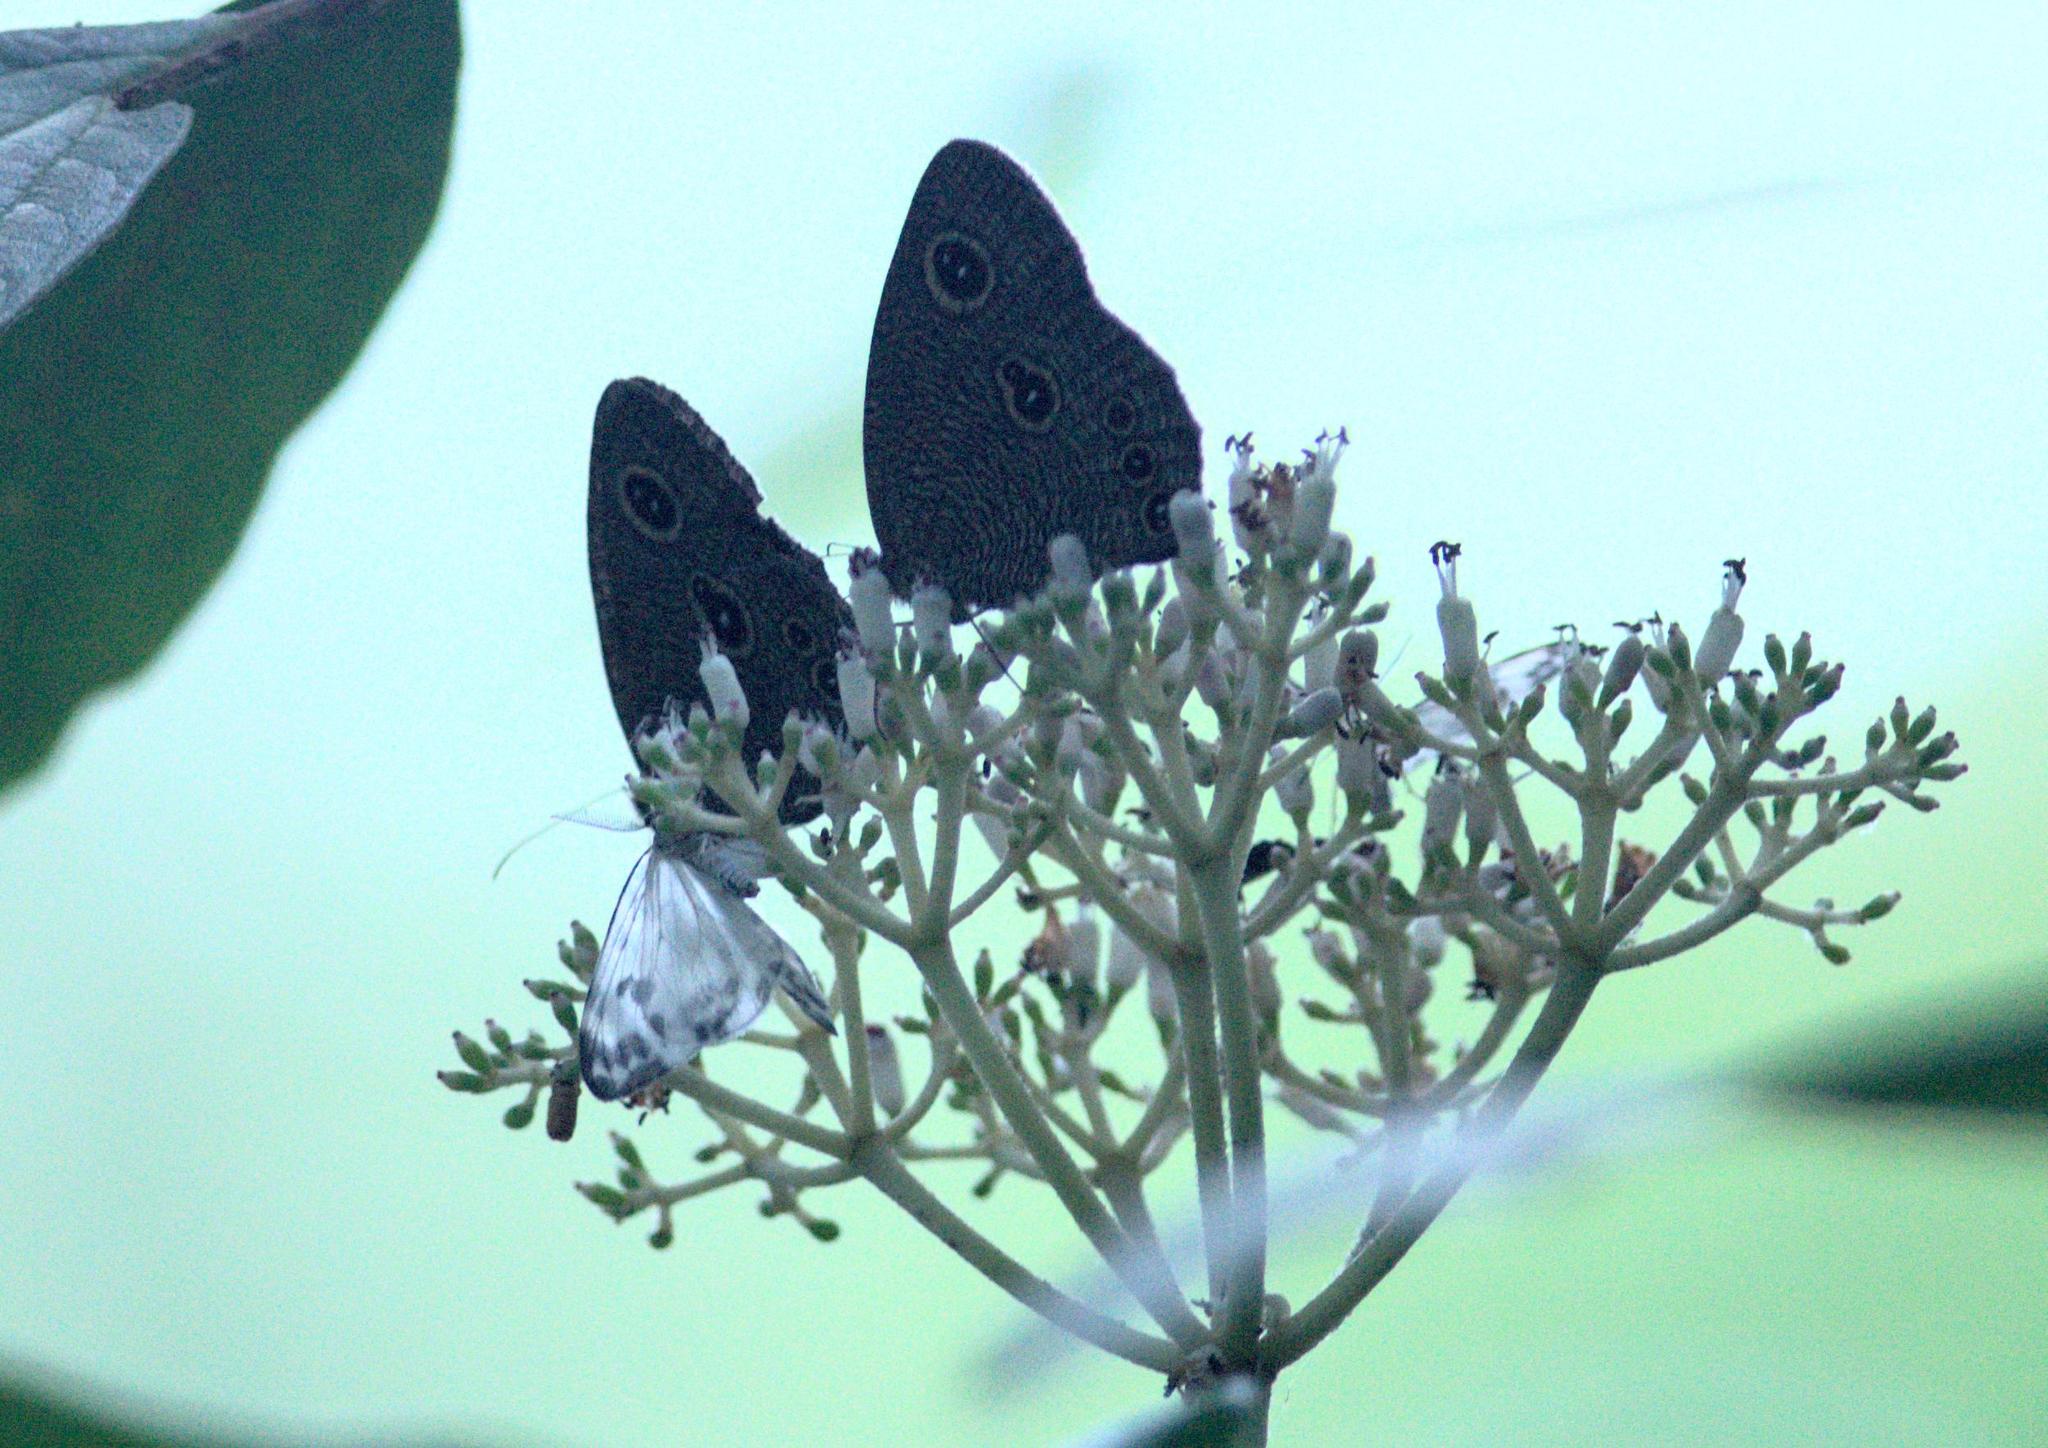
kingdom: Animalia
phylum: Arthropoda
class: Insecta
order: Lepidoptera
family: Nymphalidae
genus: Ypthima
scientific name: Ypthima nikaea
